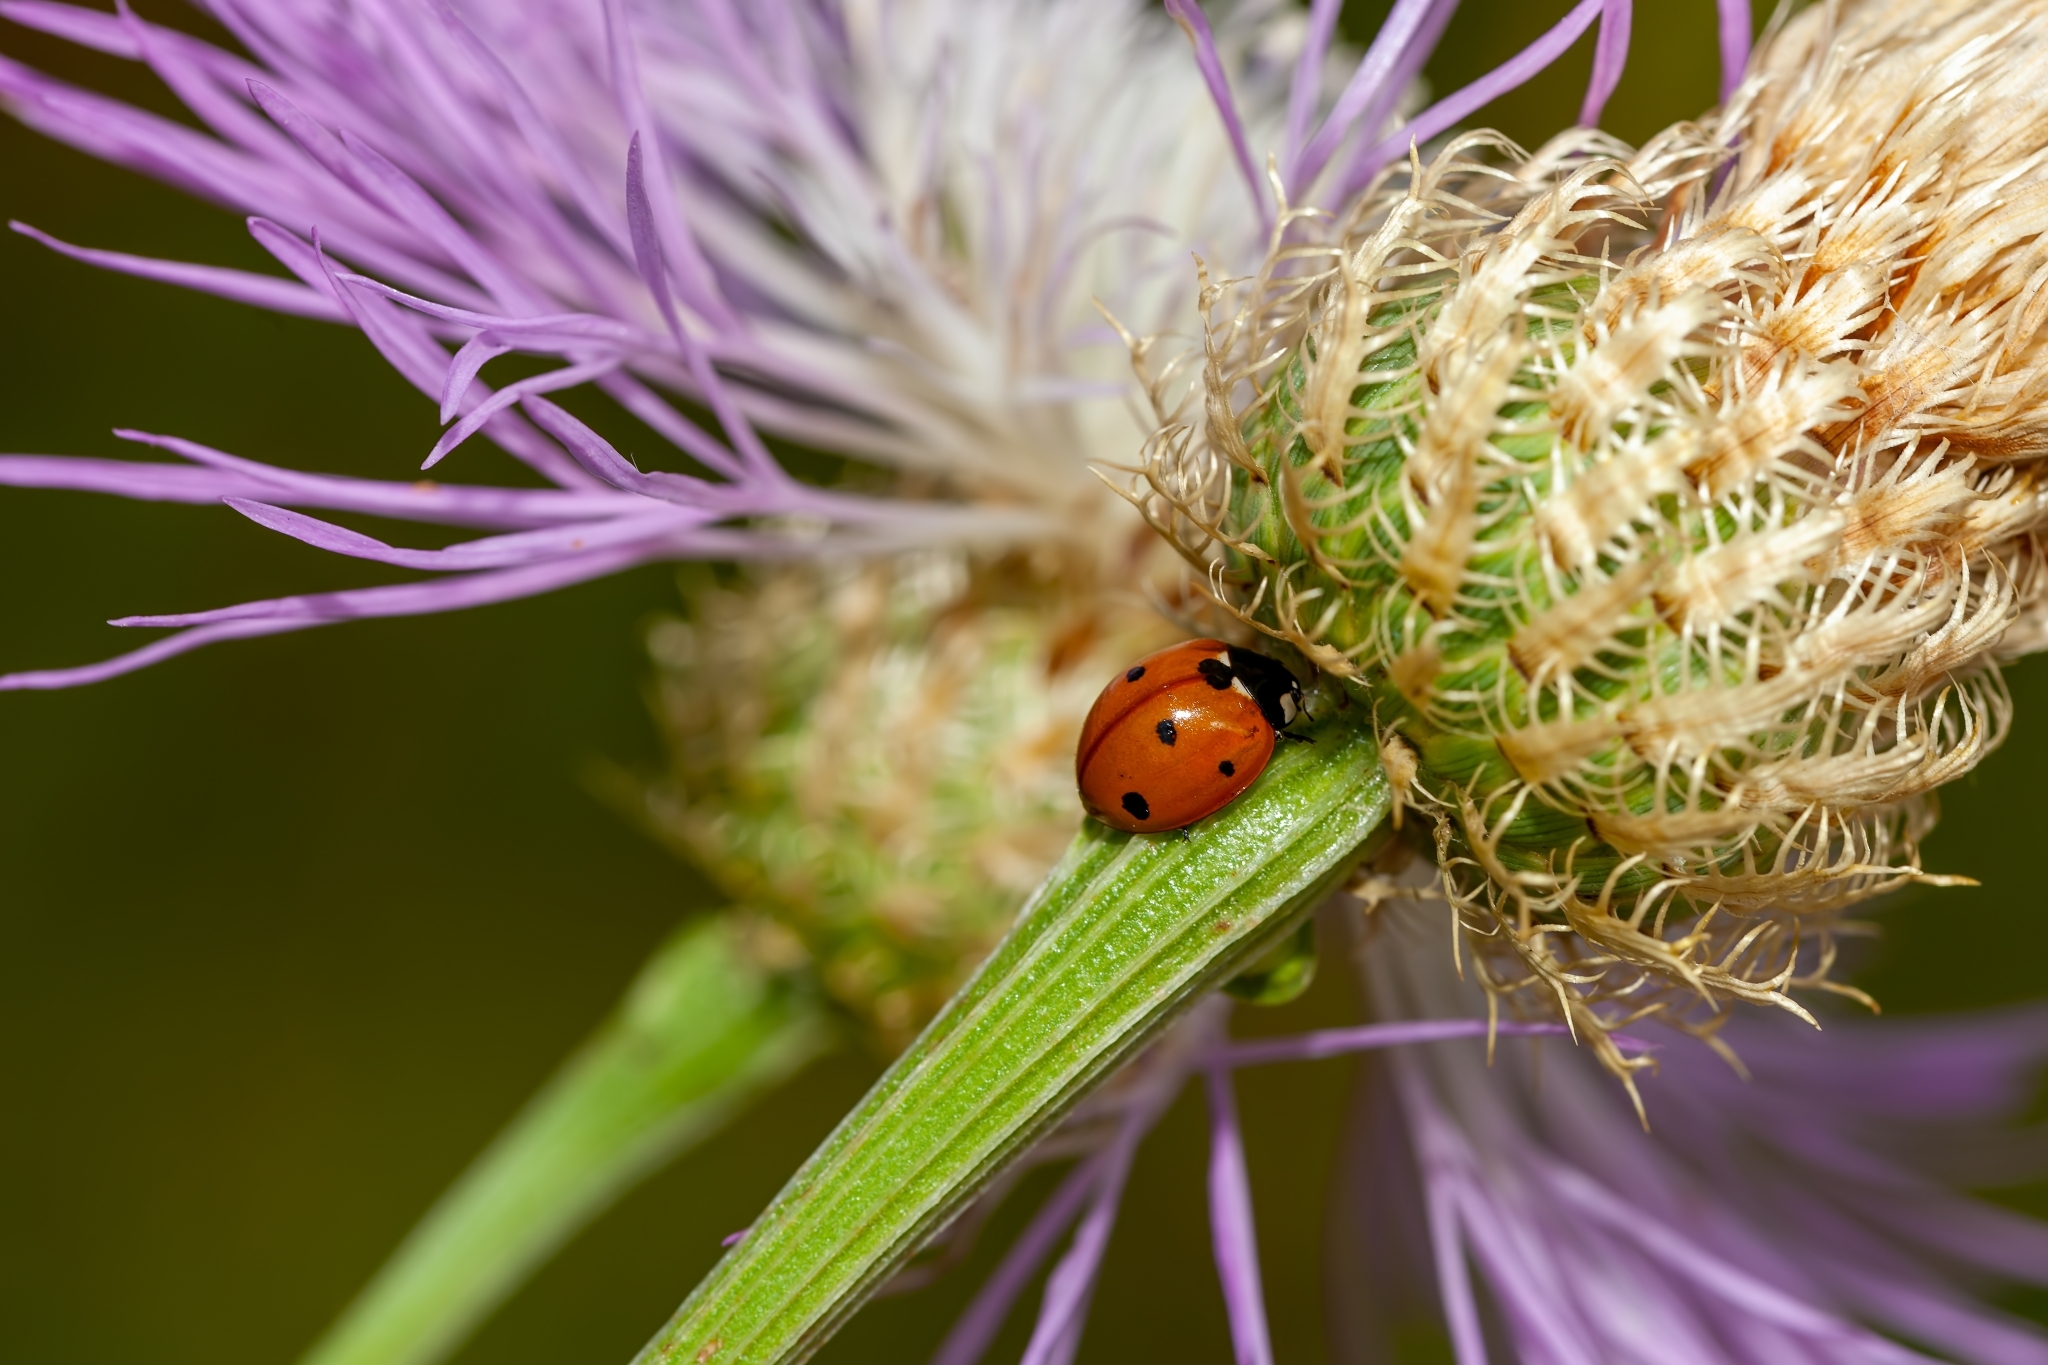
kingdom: Animalia
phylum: Arthropoda
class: Insecta
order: Coleoptera
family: Coccinellidae
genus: Coccinella
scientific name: Coccinella septempunctata
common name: Sevenspotted lady beetle
